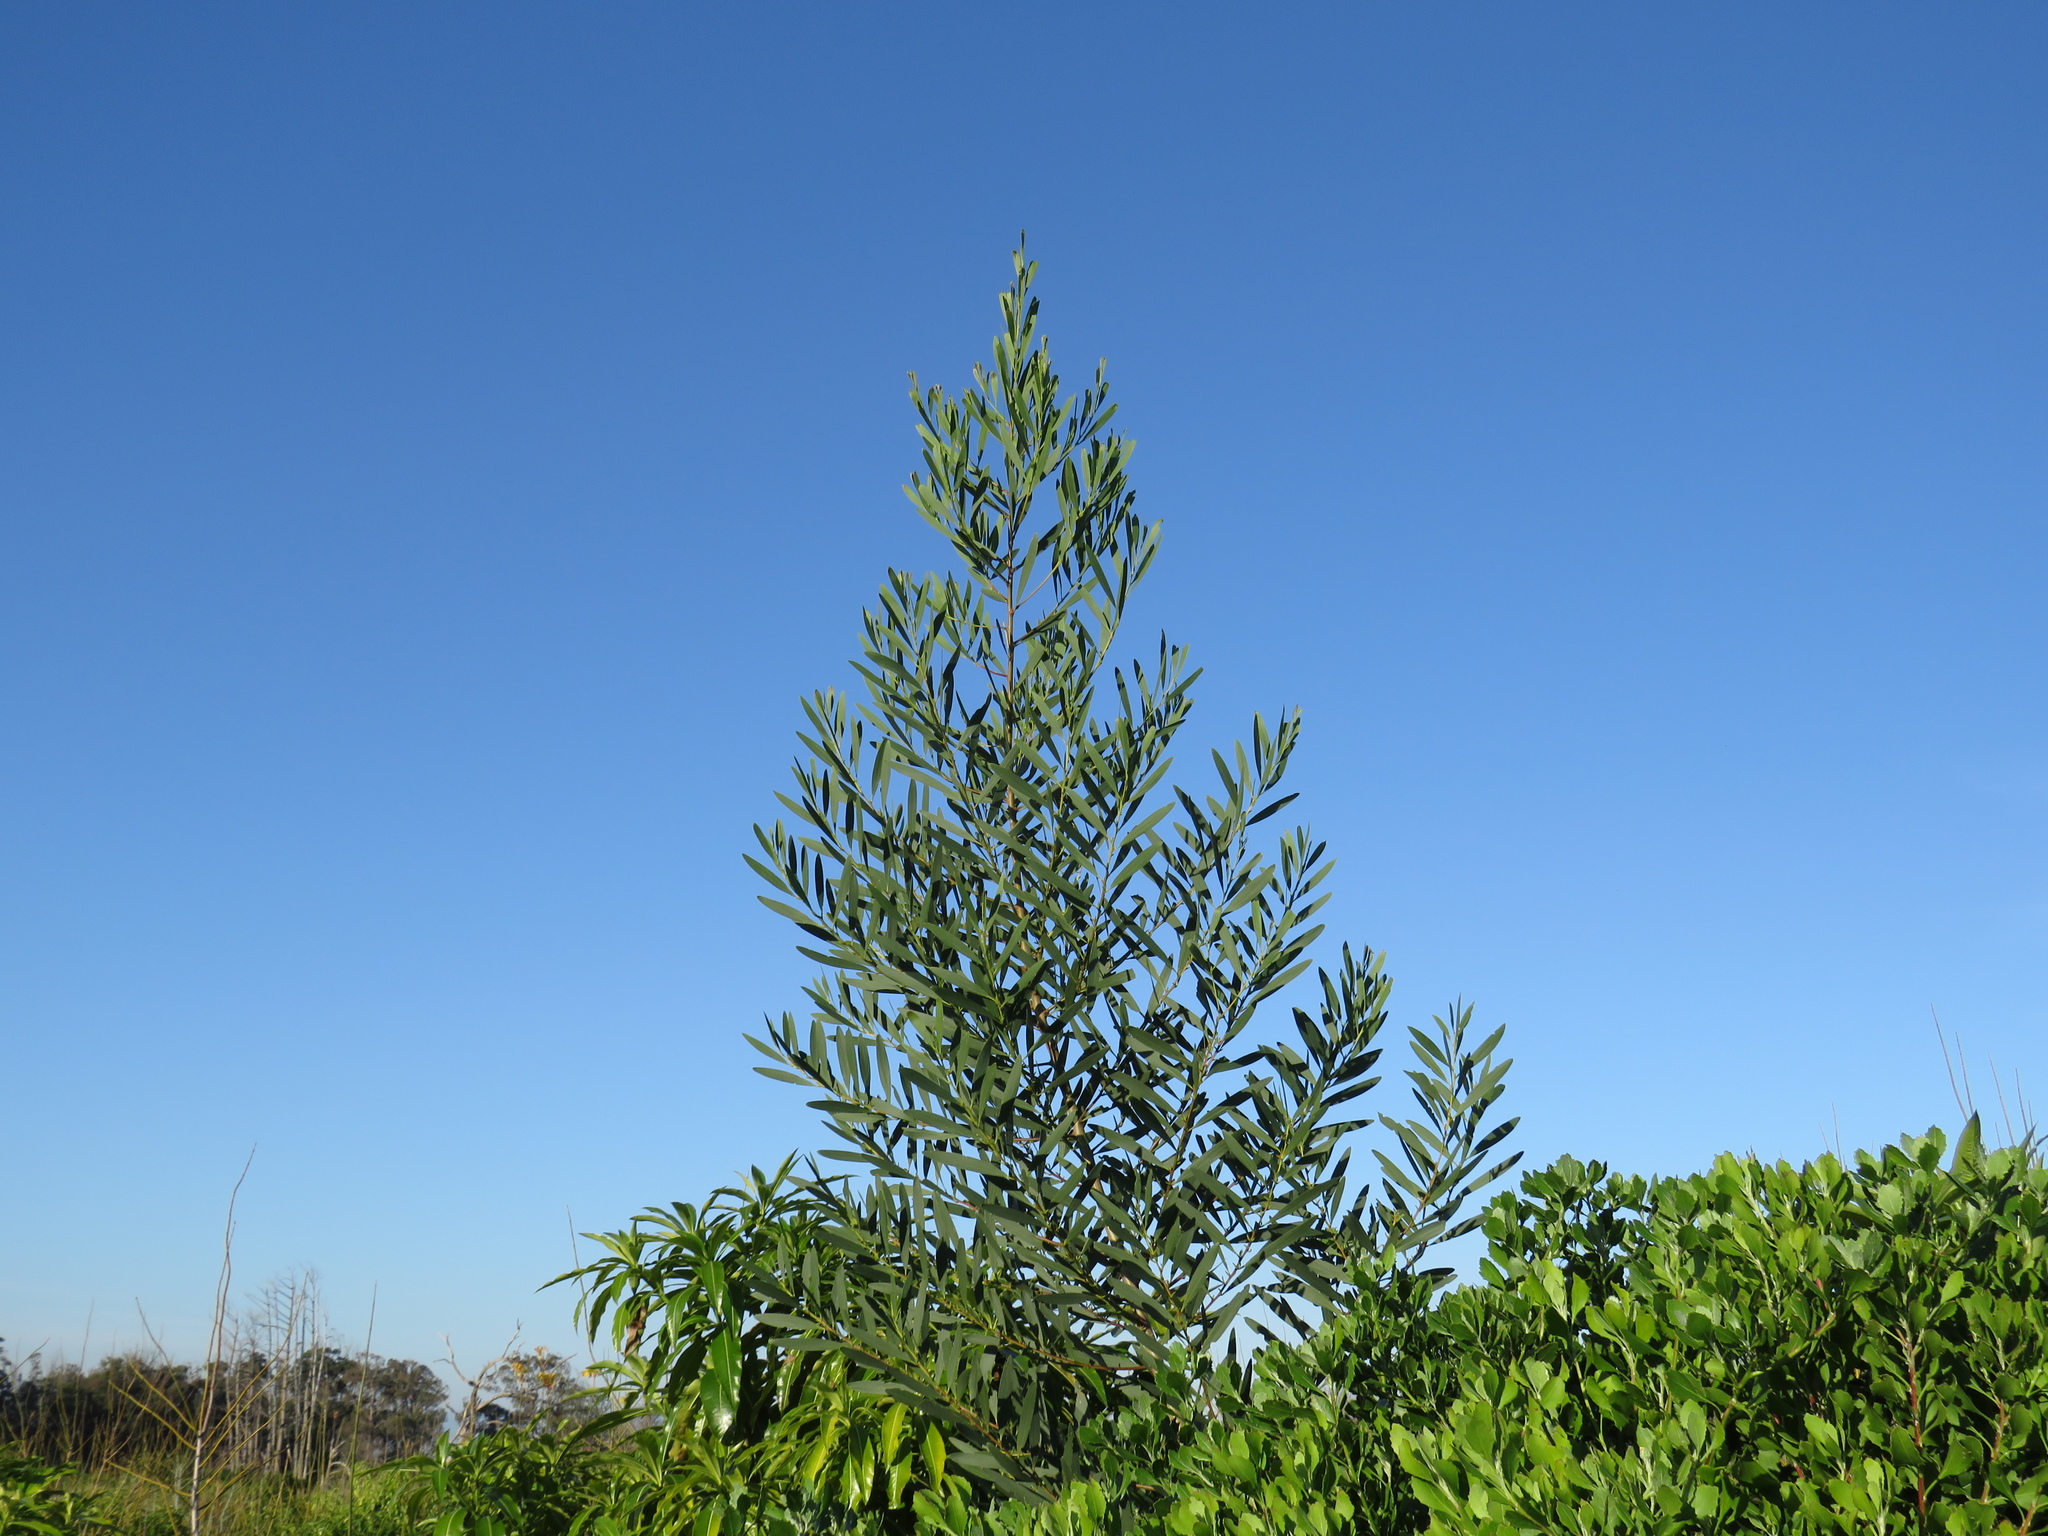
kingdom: Plantae
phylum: Tracheophyta
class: Magnoliopsida
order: Fabales
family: Fabaceae
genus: Acacia
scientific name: Acacia longifolia
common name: Sydney golden wattle
